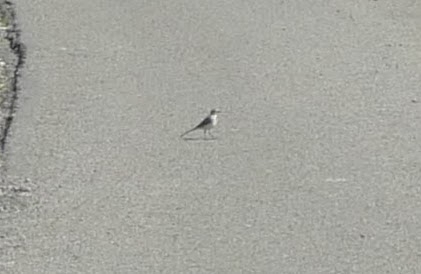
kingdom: Animalia
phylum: Chordata
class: Aves
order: Passeriformes
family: Motacillidae
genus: Motacilla
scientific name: Motacilla alba
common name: White wagtail
